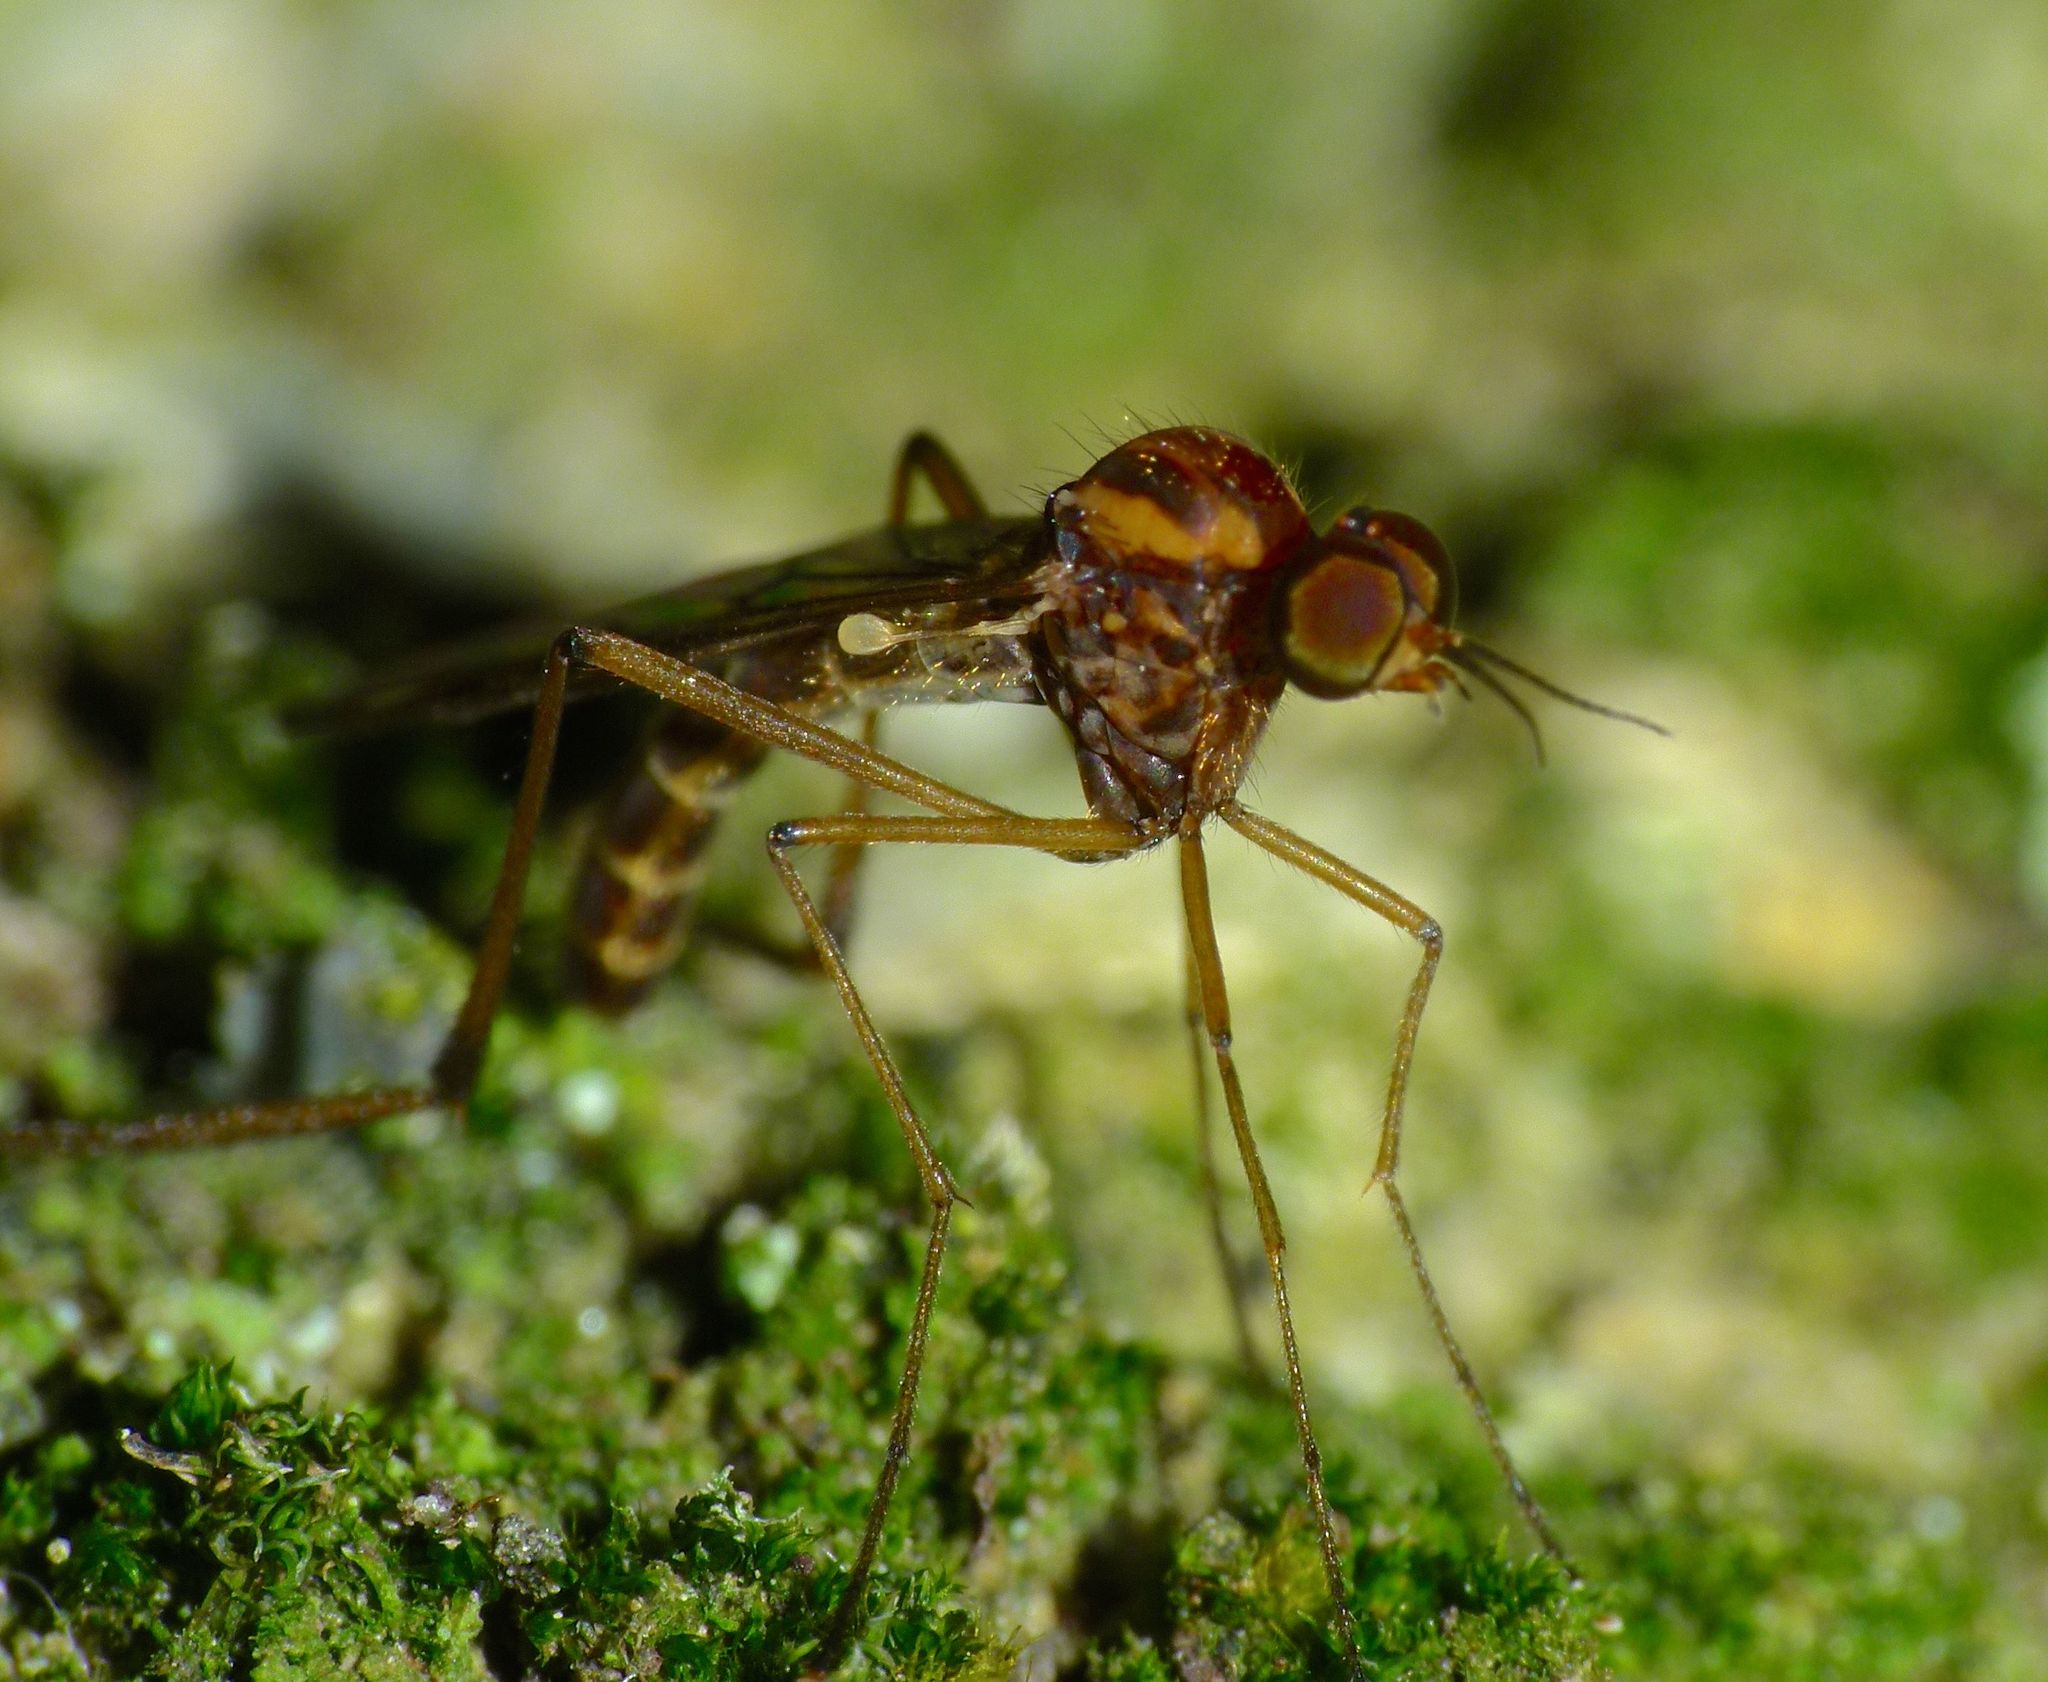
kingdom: Animalia
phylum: Arthropoda
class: Insecta
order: Diptera
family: Anisopodidae
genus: Sylvicola
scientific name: Sylvicola notatus
